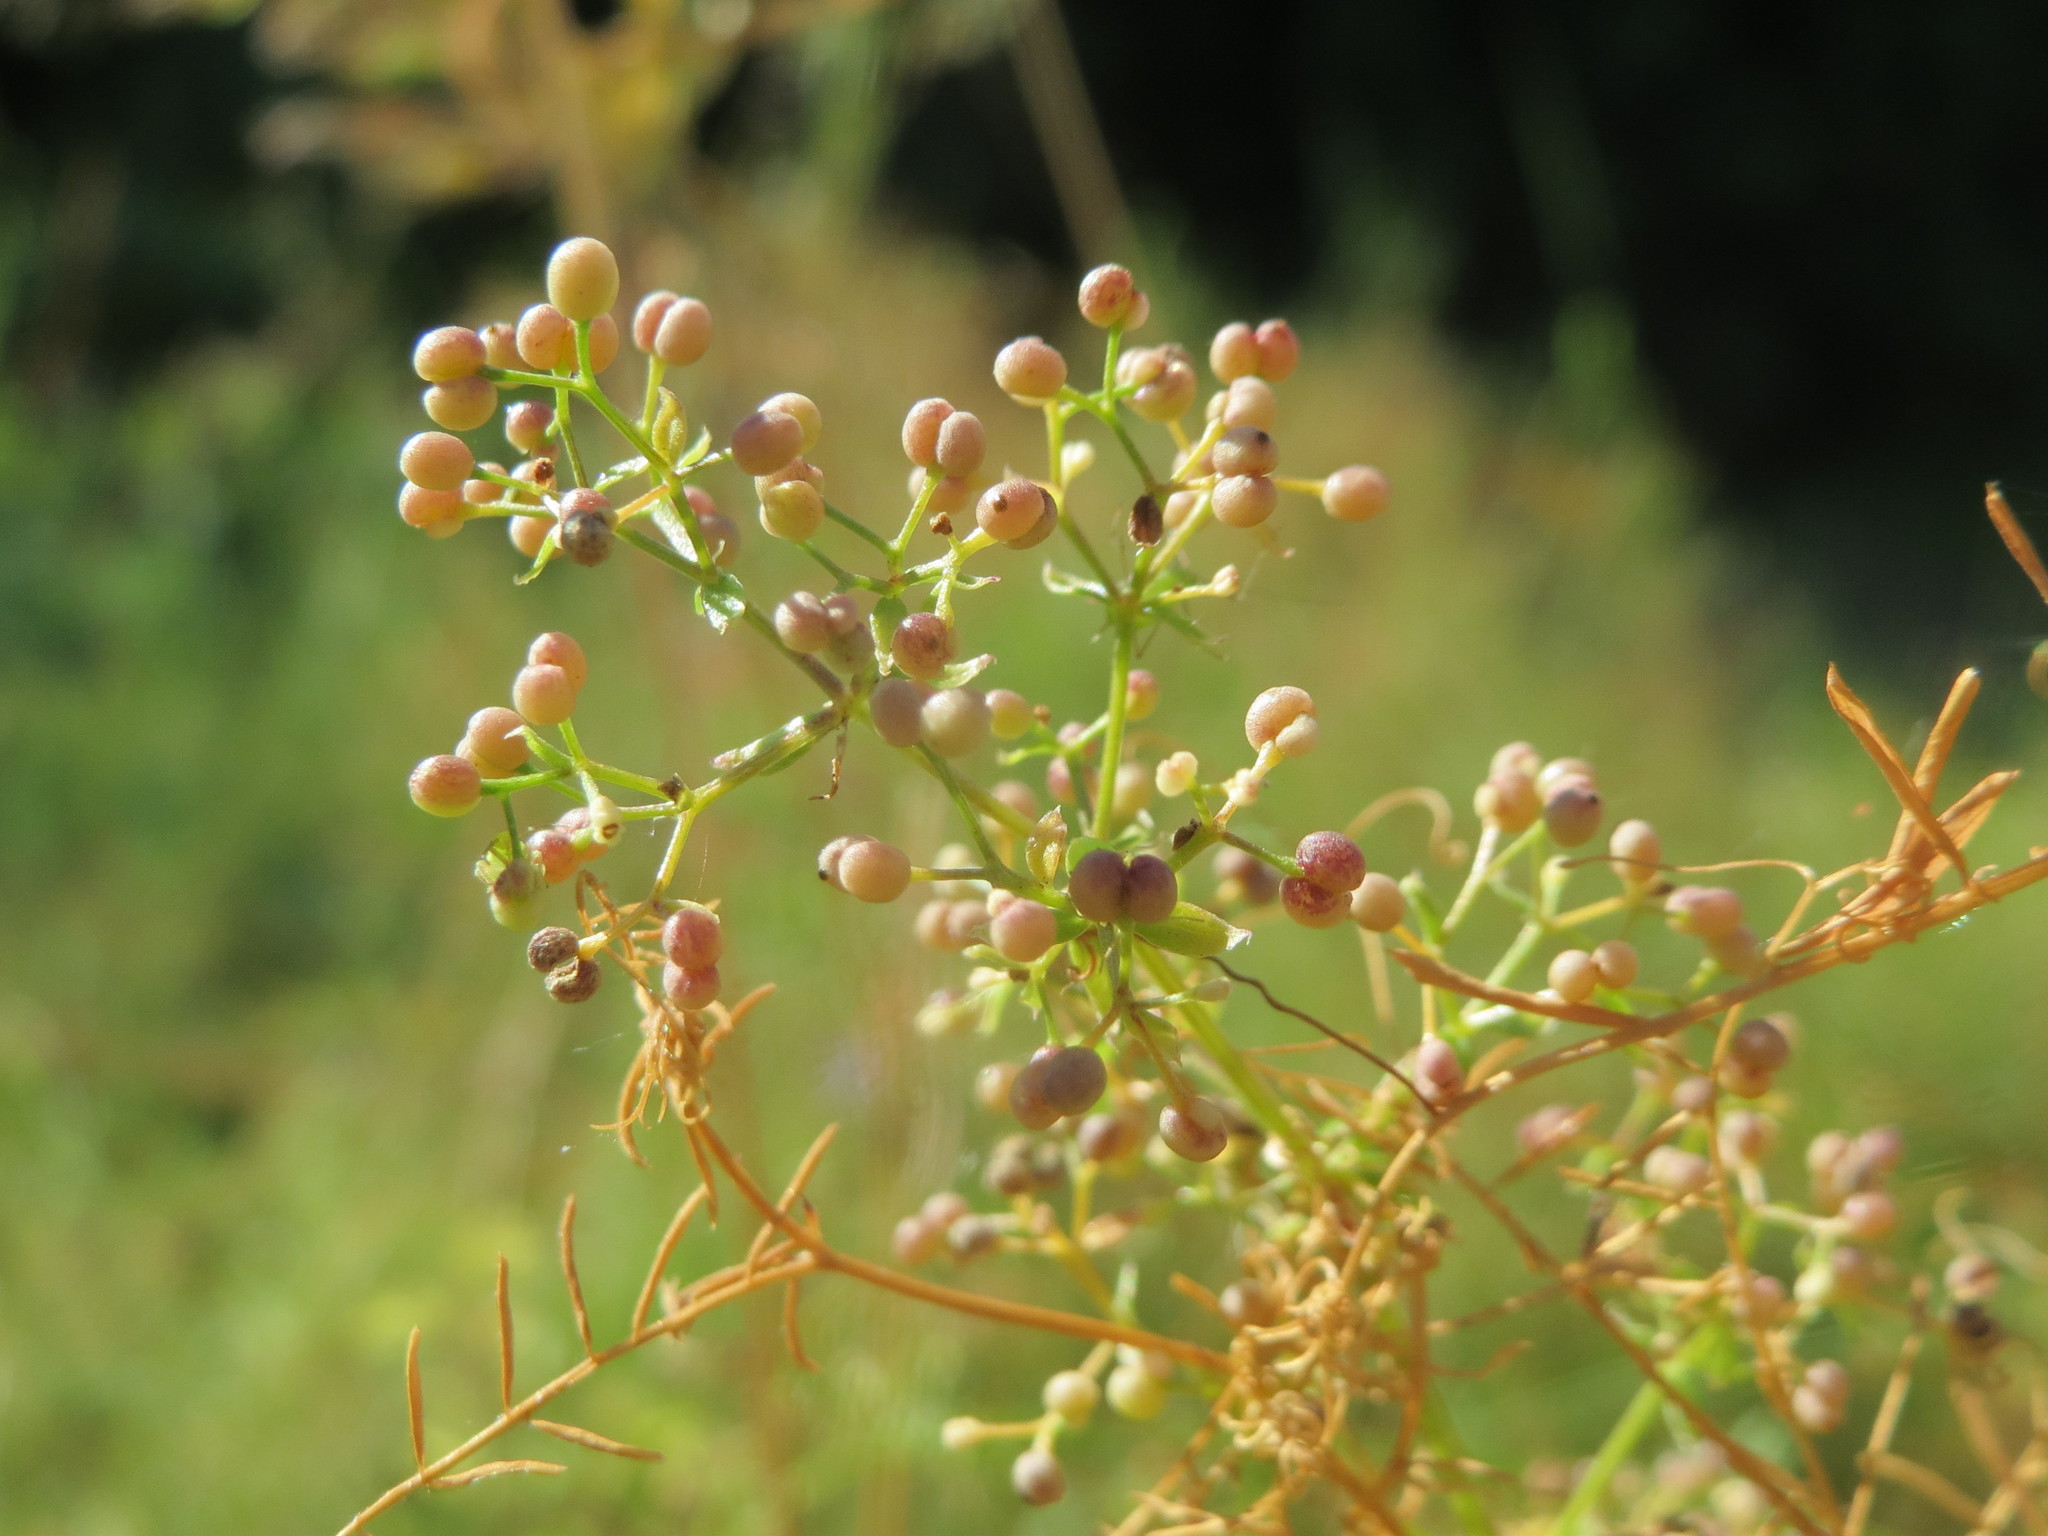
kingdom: Plantae
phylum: Tracheophyta
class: Magnoliopsida
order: Gentianales
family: Rubiaceae
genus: Galium
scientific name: Galium mollugo
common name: Hedge bedstraw
